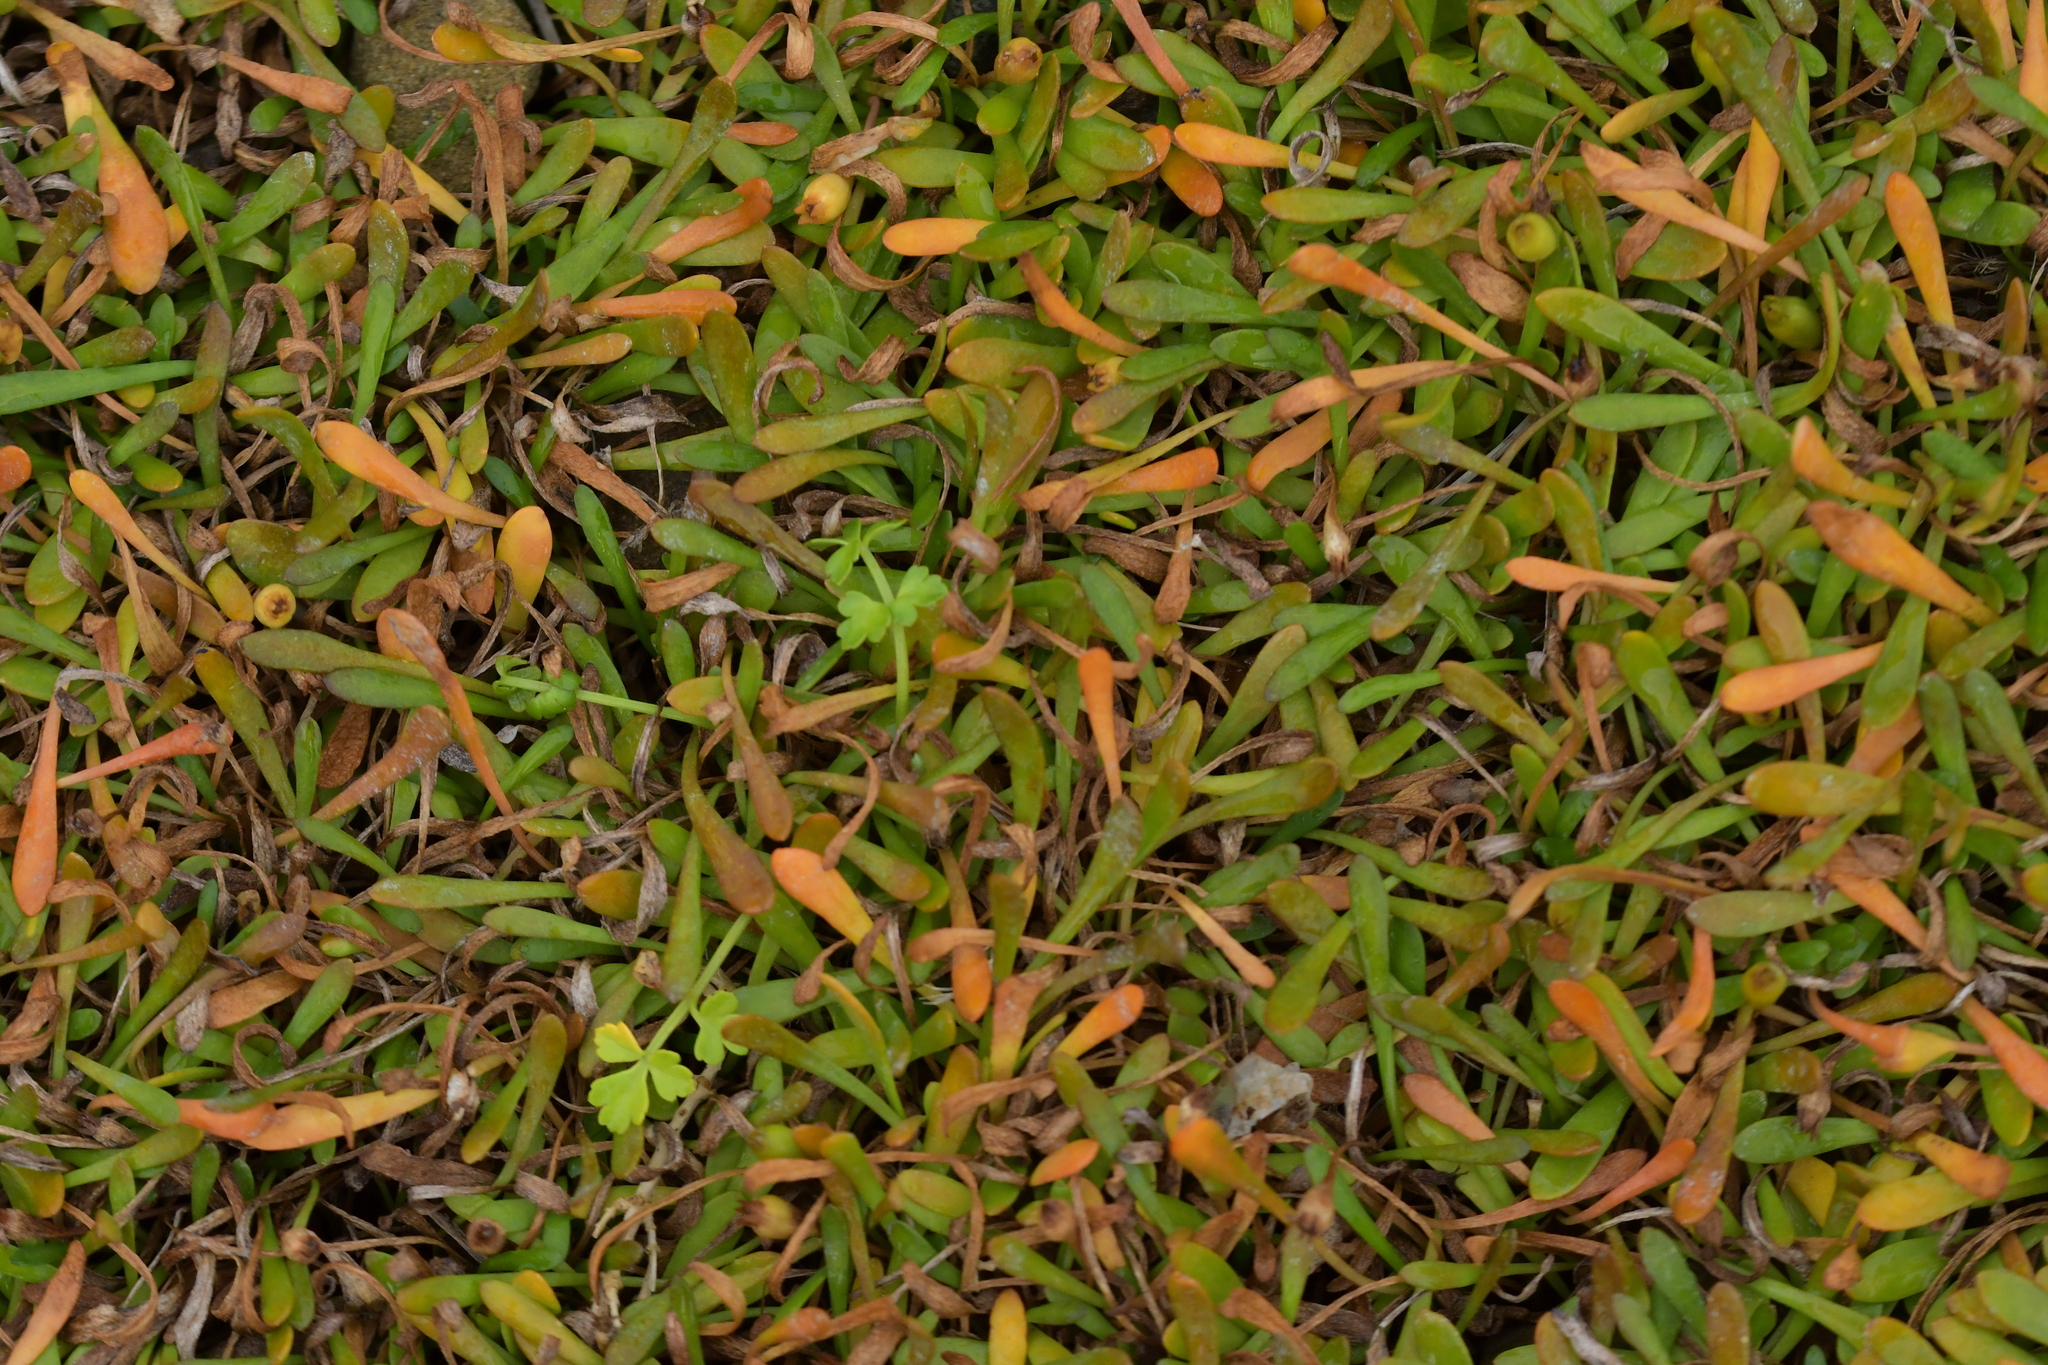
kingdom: Plantae
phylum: Tracheophyta
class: Magnoliopsida
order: Asterales
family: Goodeniaceae
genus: Goodenia
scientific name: Goodenia radicans
